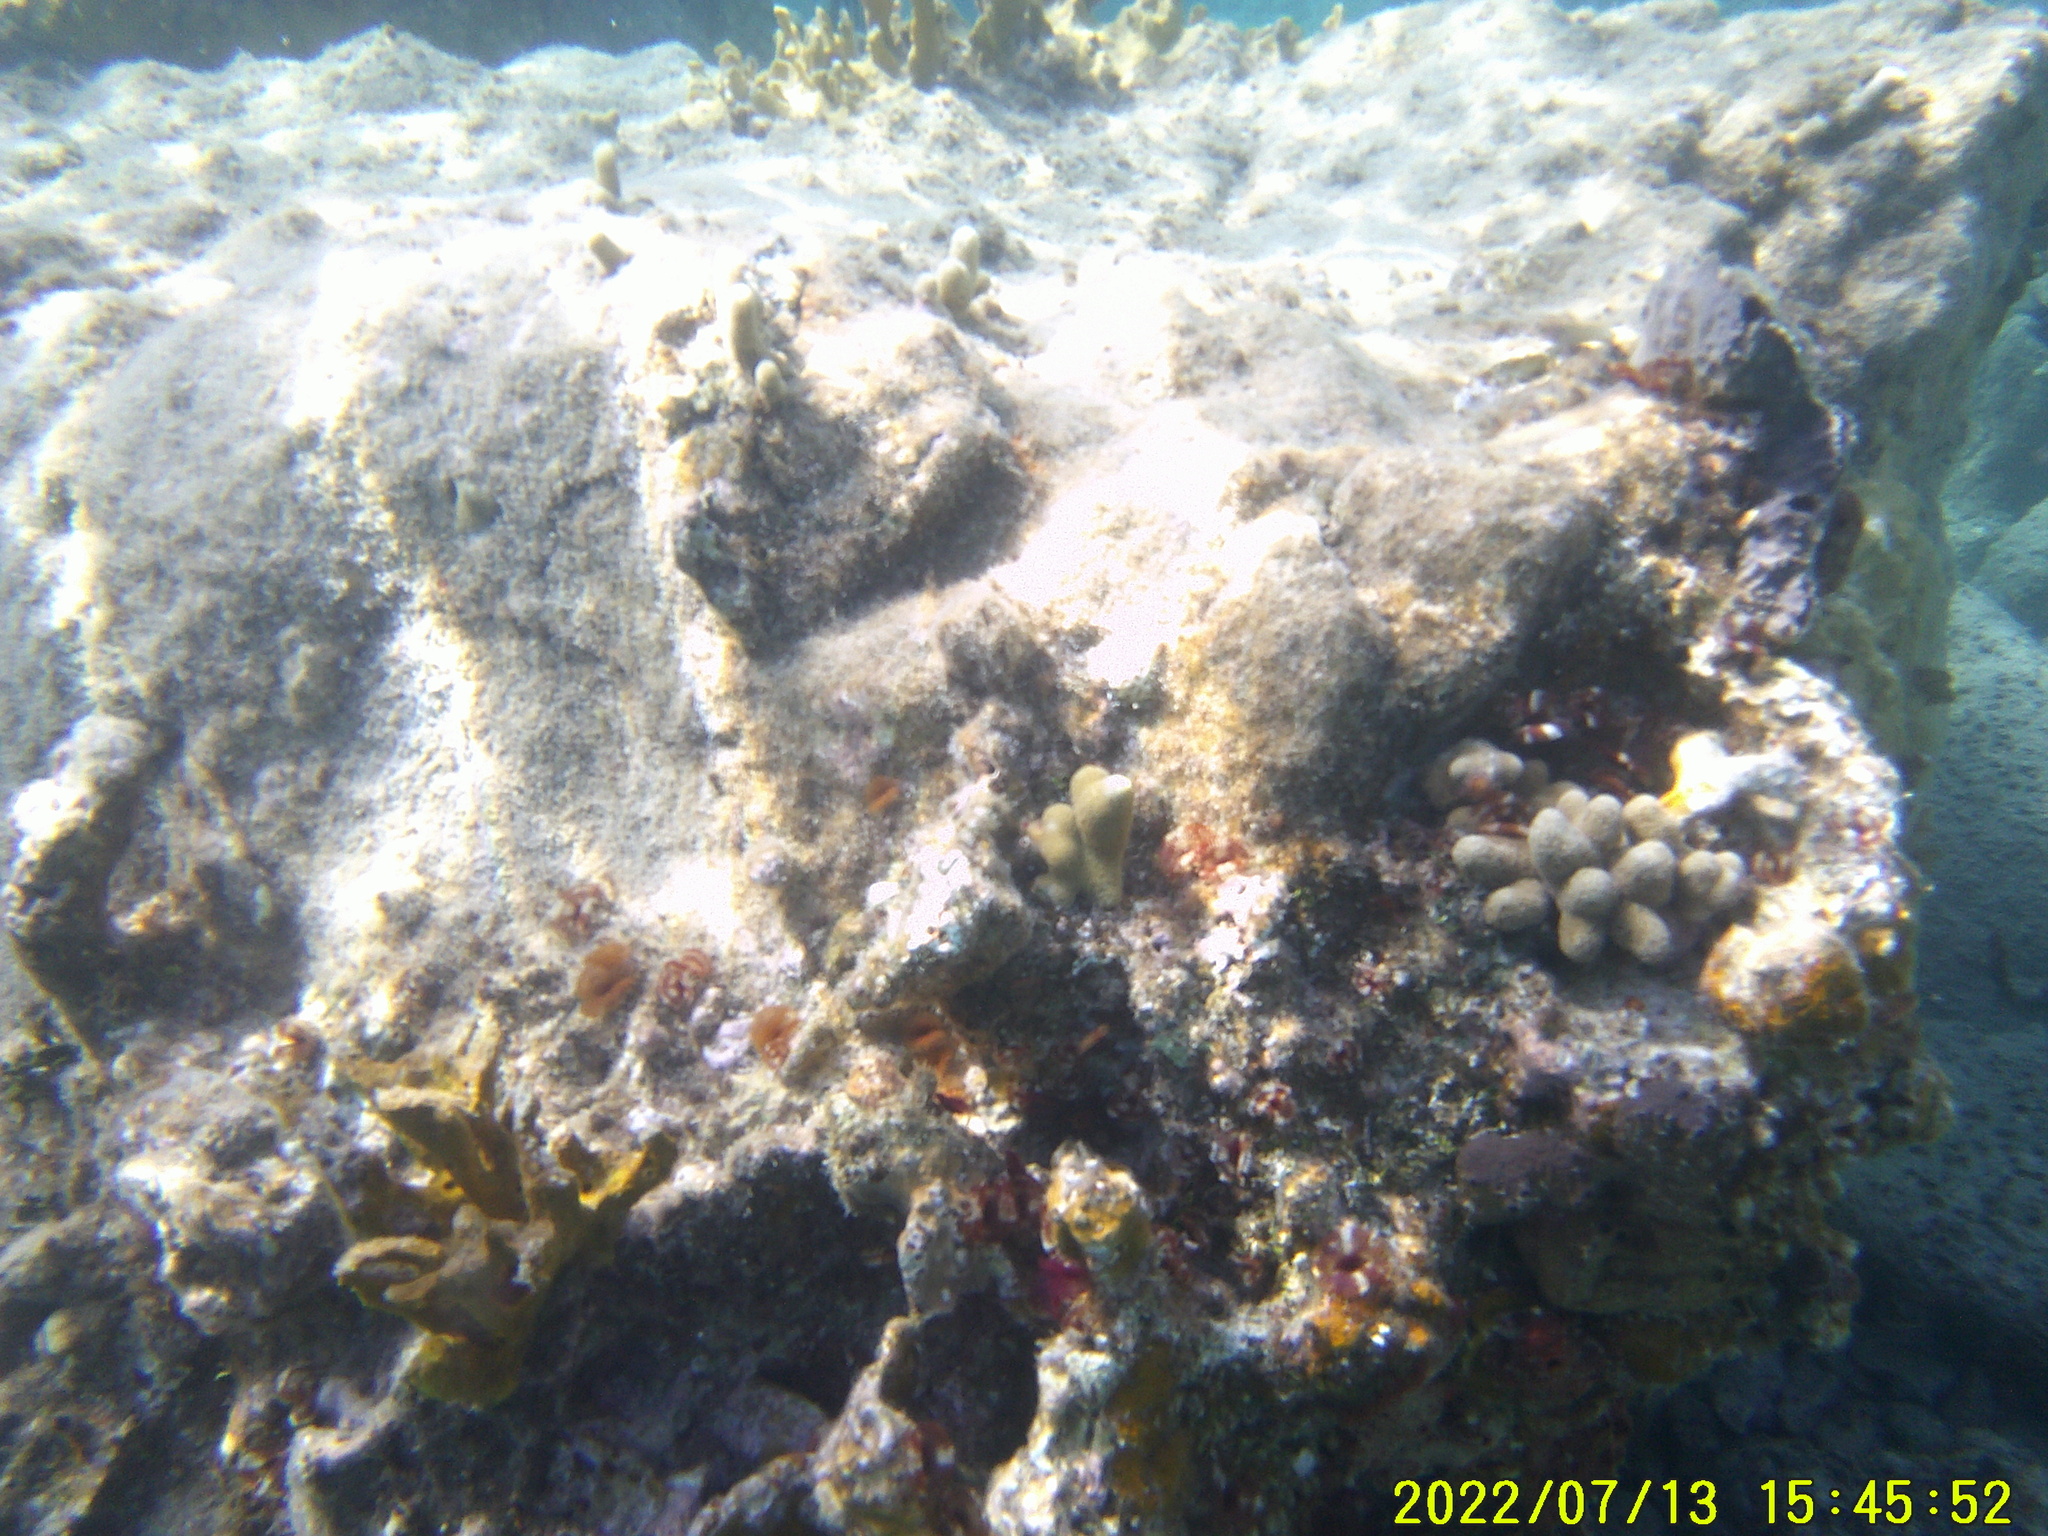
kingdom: Animalia
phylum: Cnidaria
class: Anthozoa
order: Scleractinia
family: Poritidae
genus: Porites
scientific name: Porites porites
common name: Finger coral
